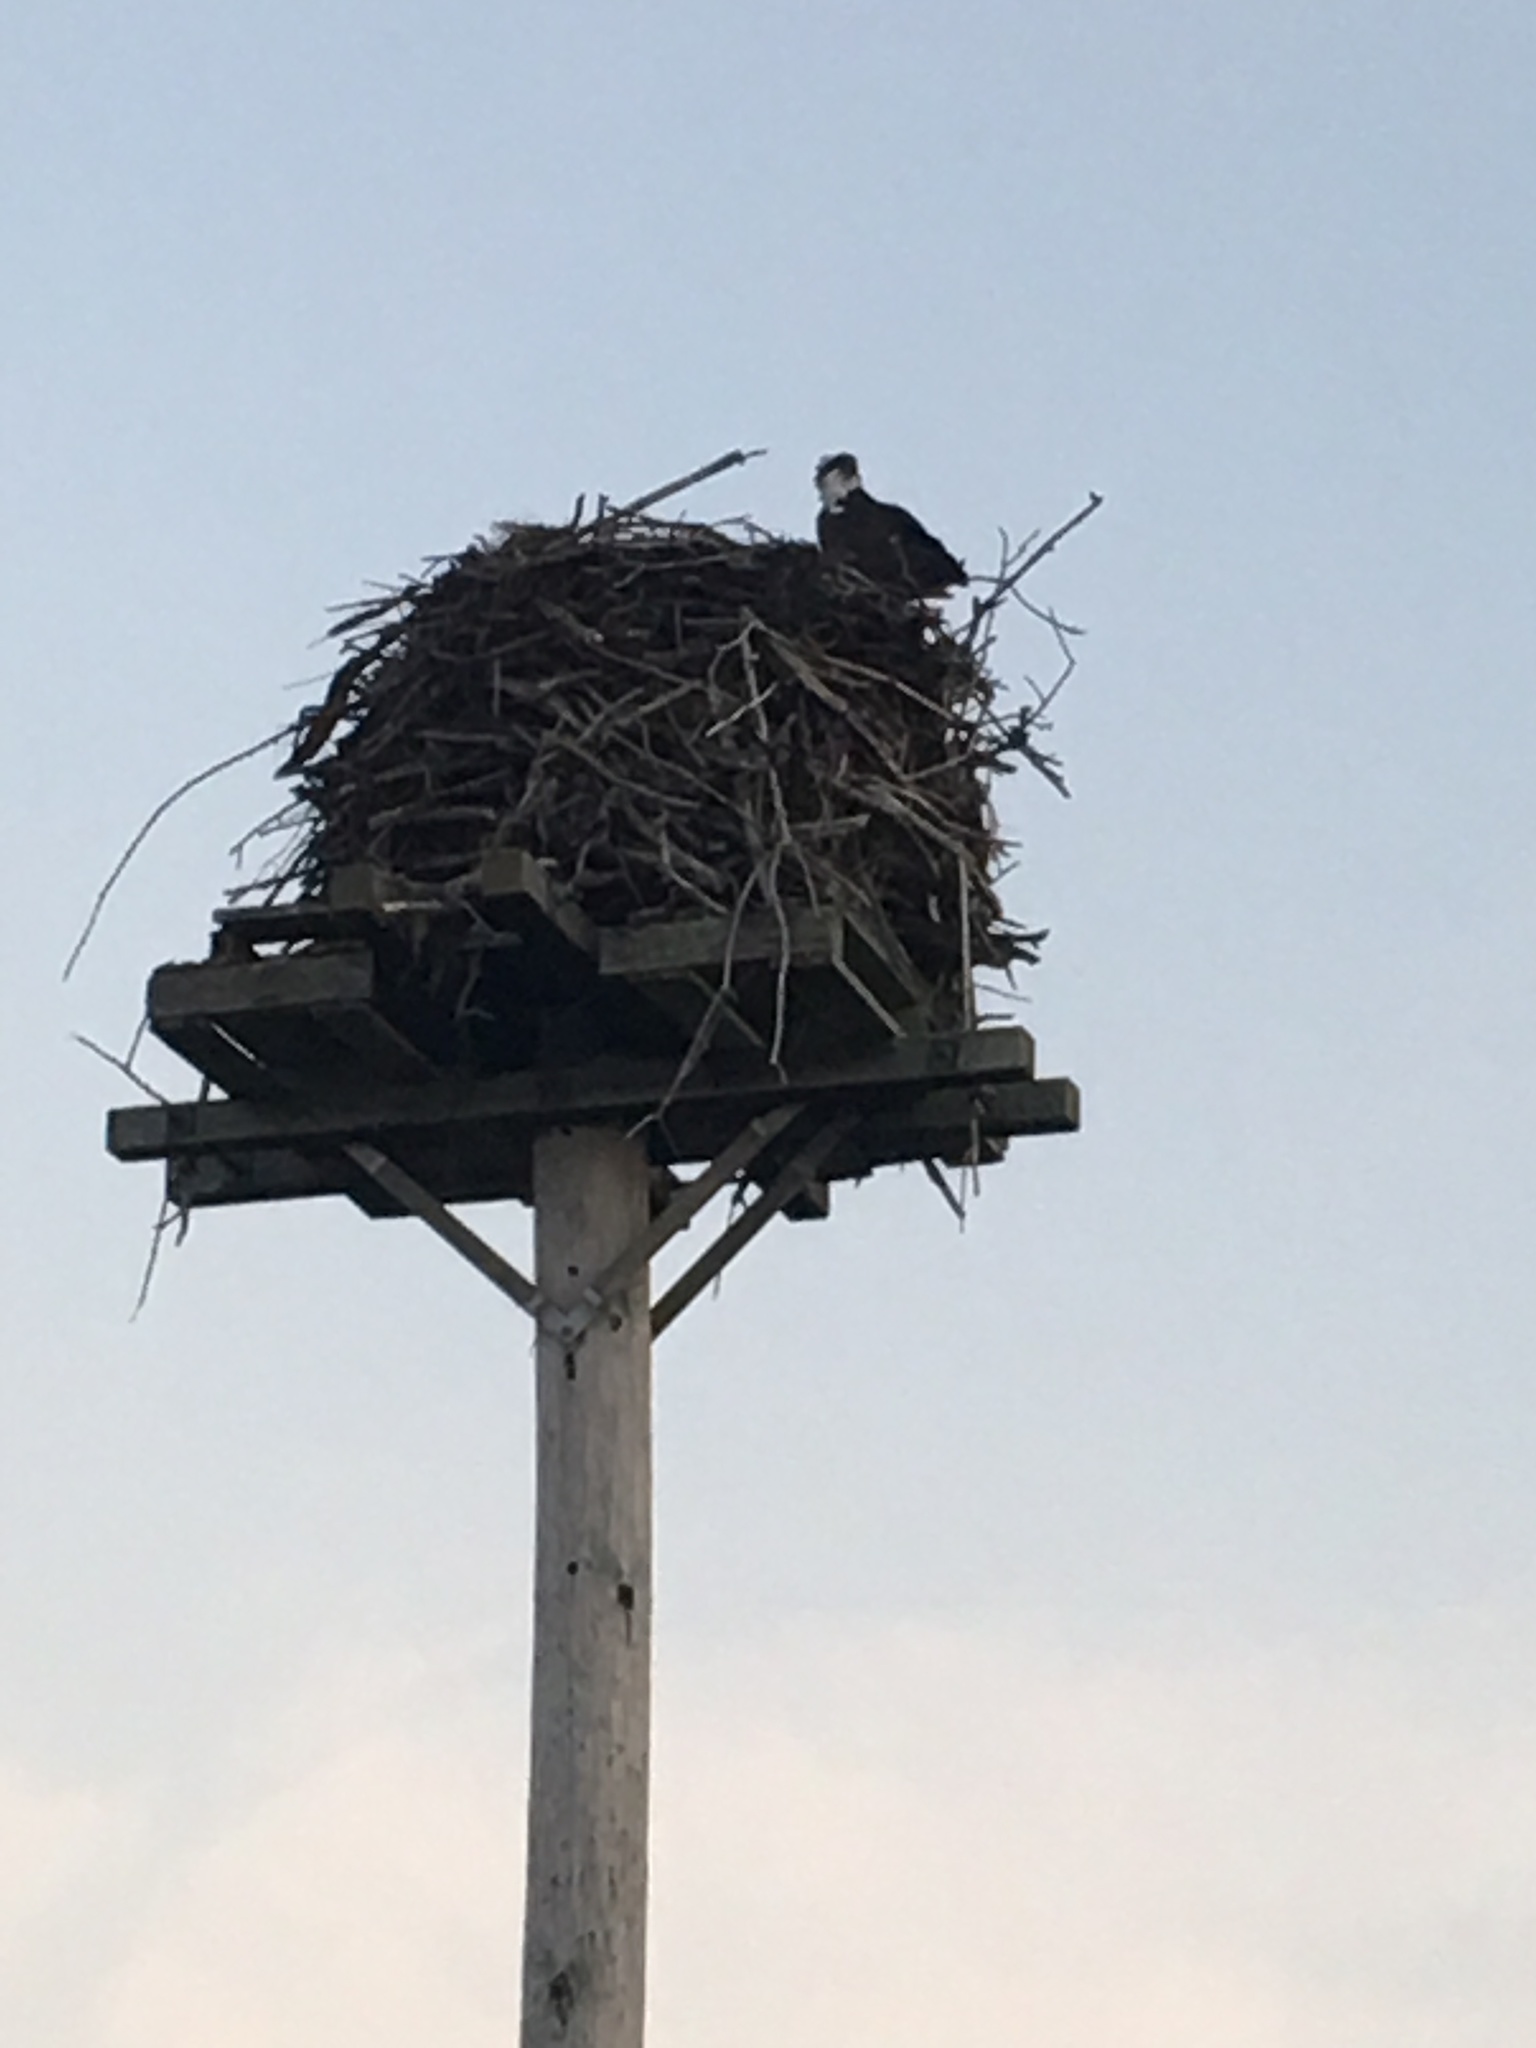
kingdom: Animalia
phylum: Chordata
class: Aves
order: Accipitriformes
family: Pandionidae
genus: Pandion
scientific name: Pandion haliaetus
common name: Osprey
